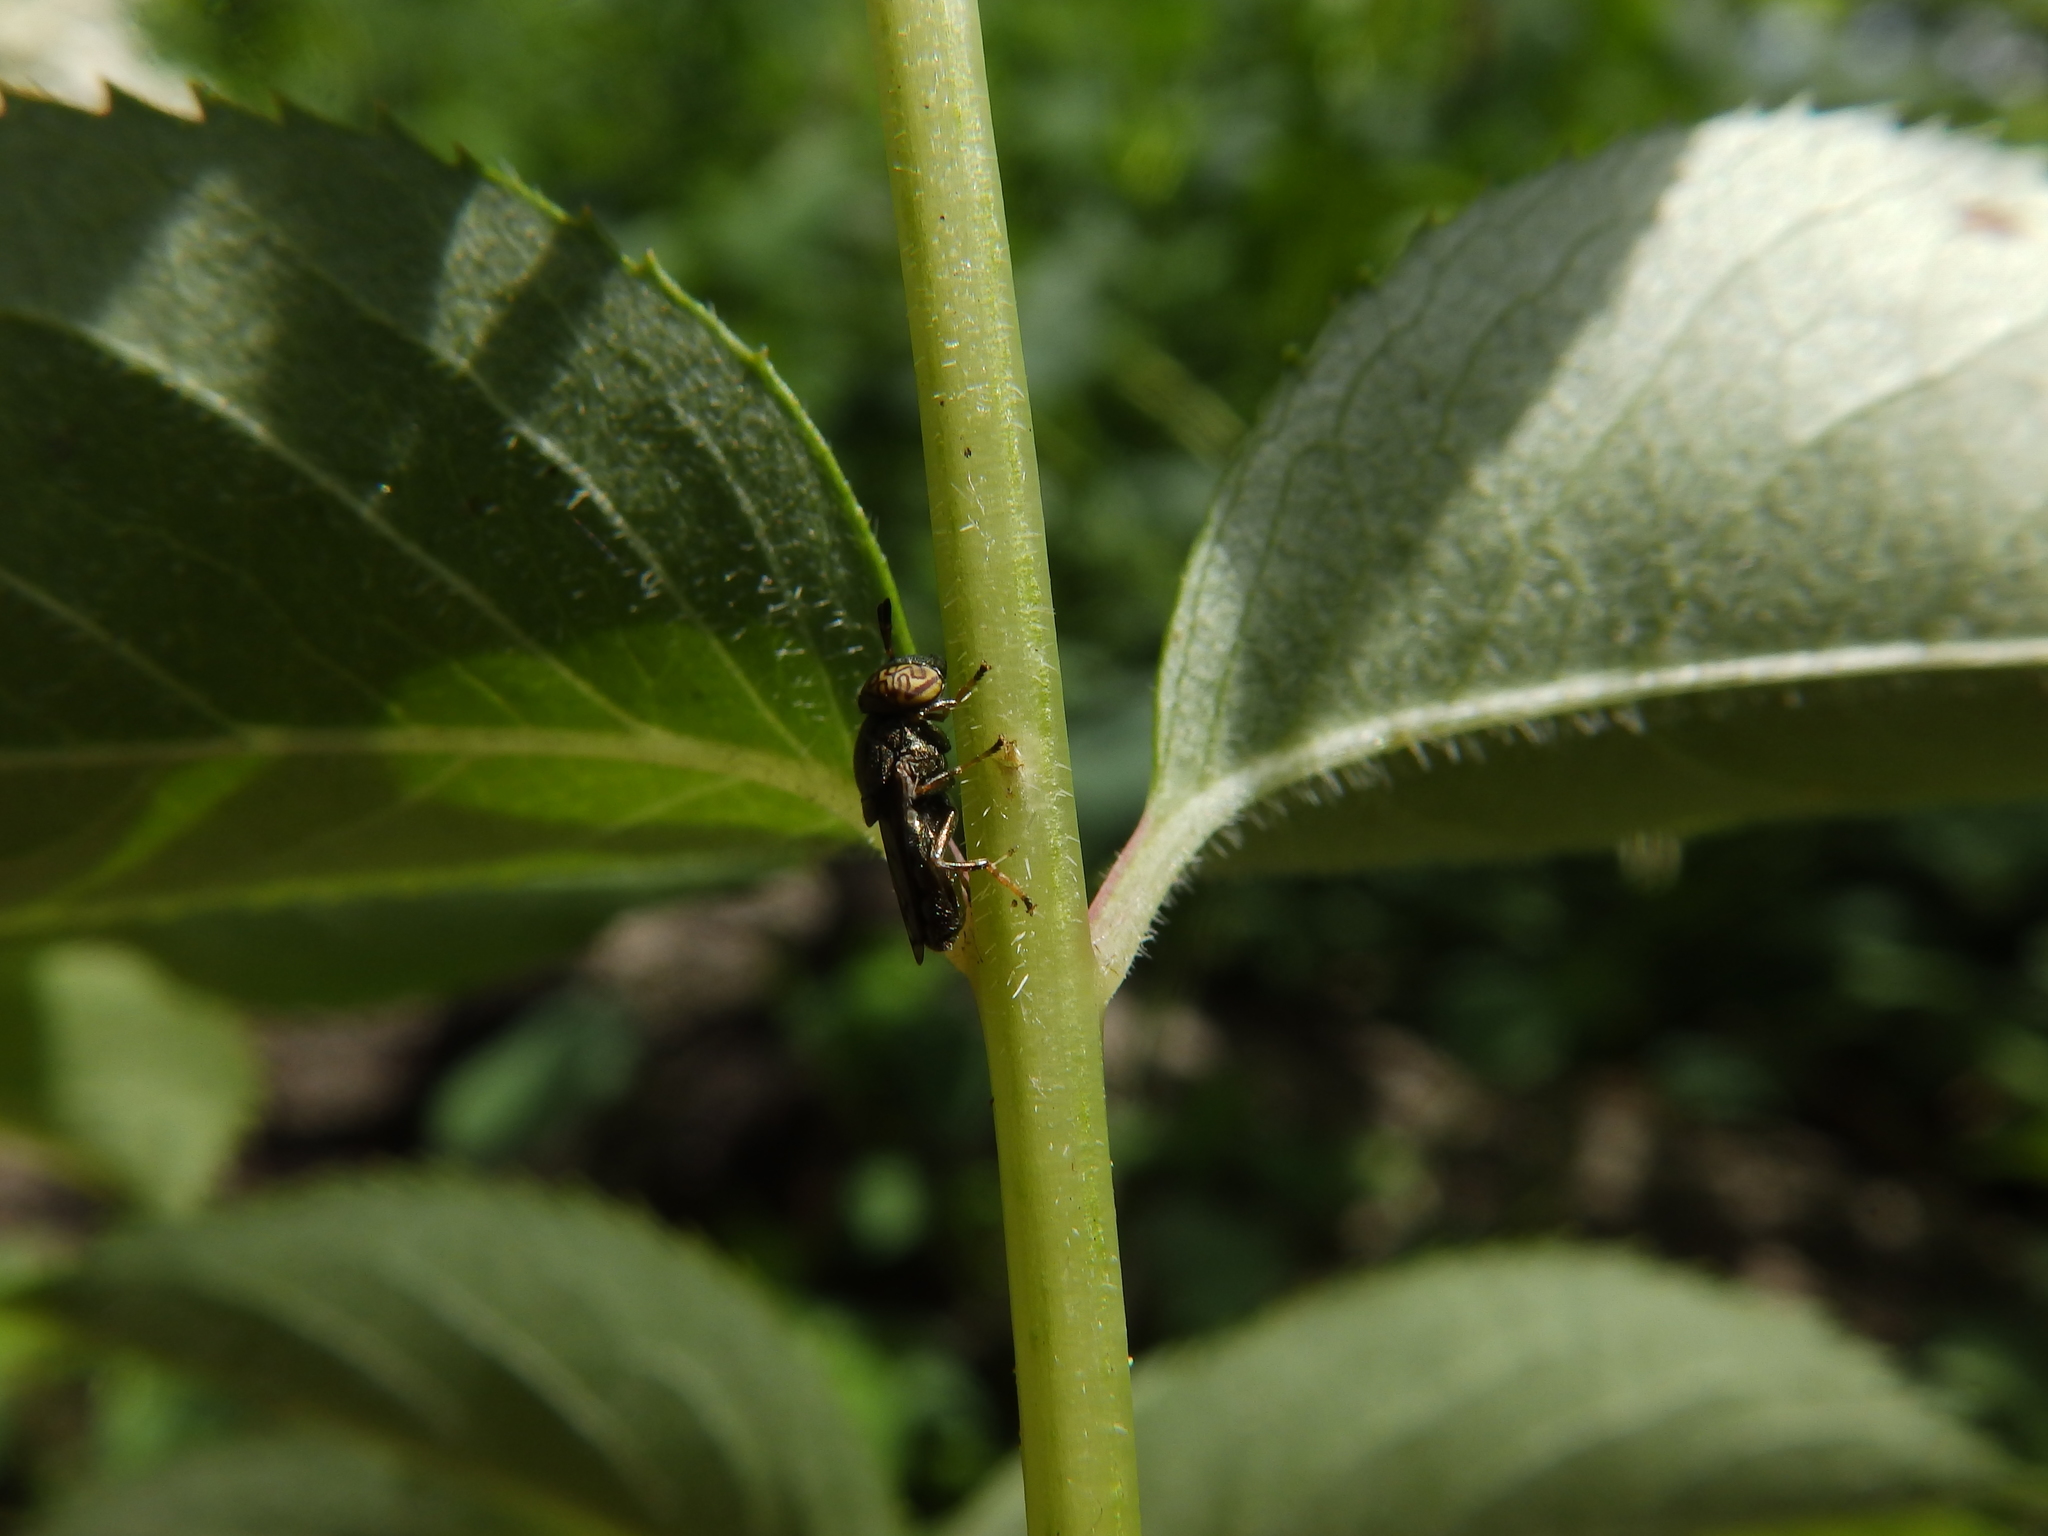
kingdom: Animalia
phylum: Arthropoda
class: Insecta
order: Diptera
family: Syrphidae
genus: Orthonevra
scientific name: Orthonevra nitida
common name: Wavy mucksucker
